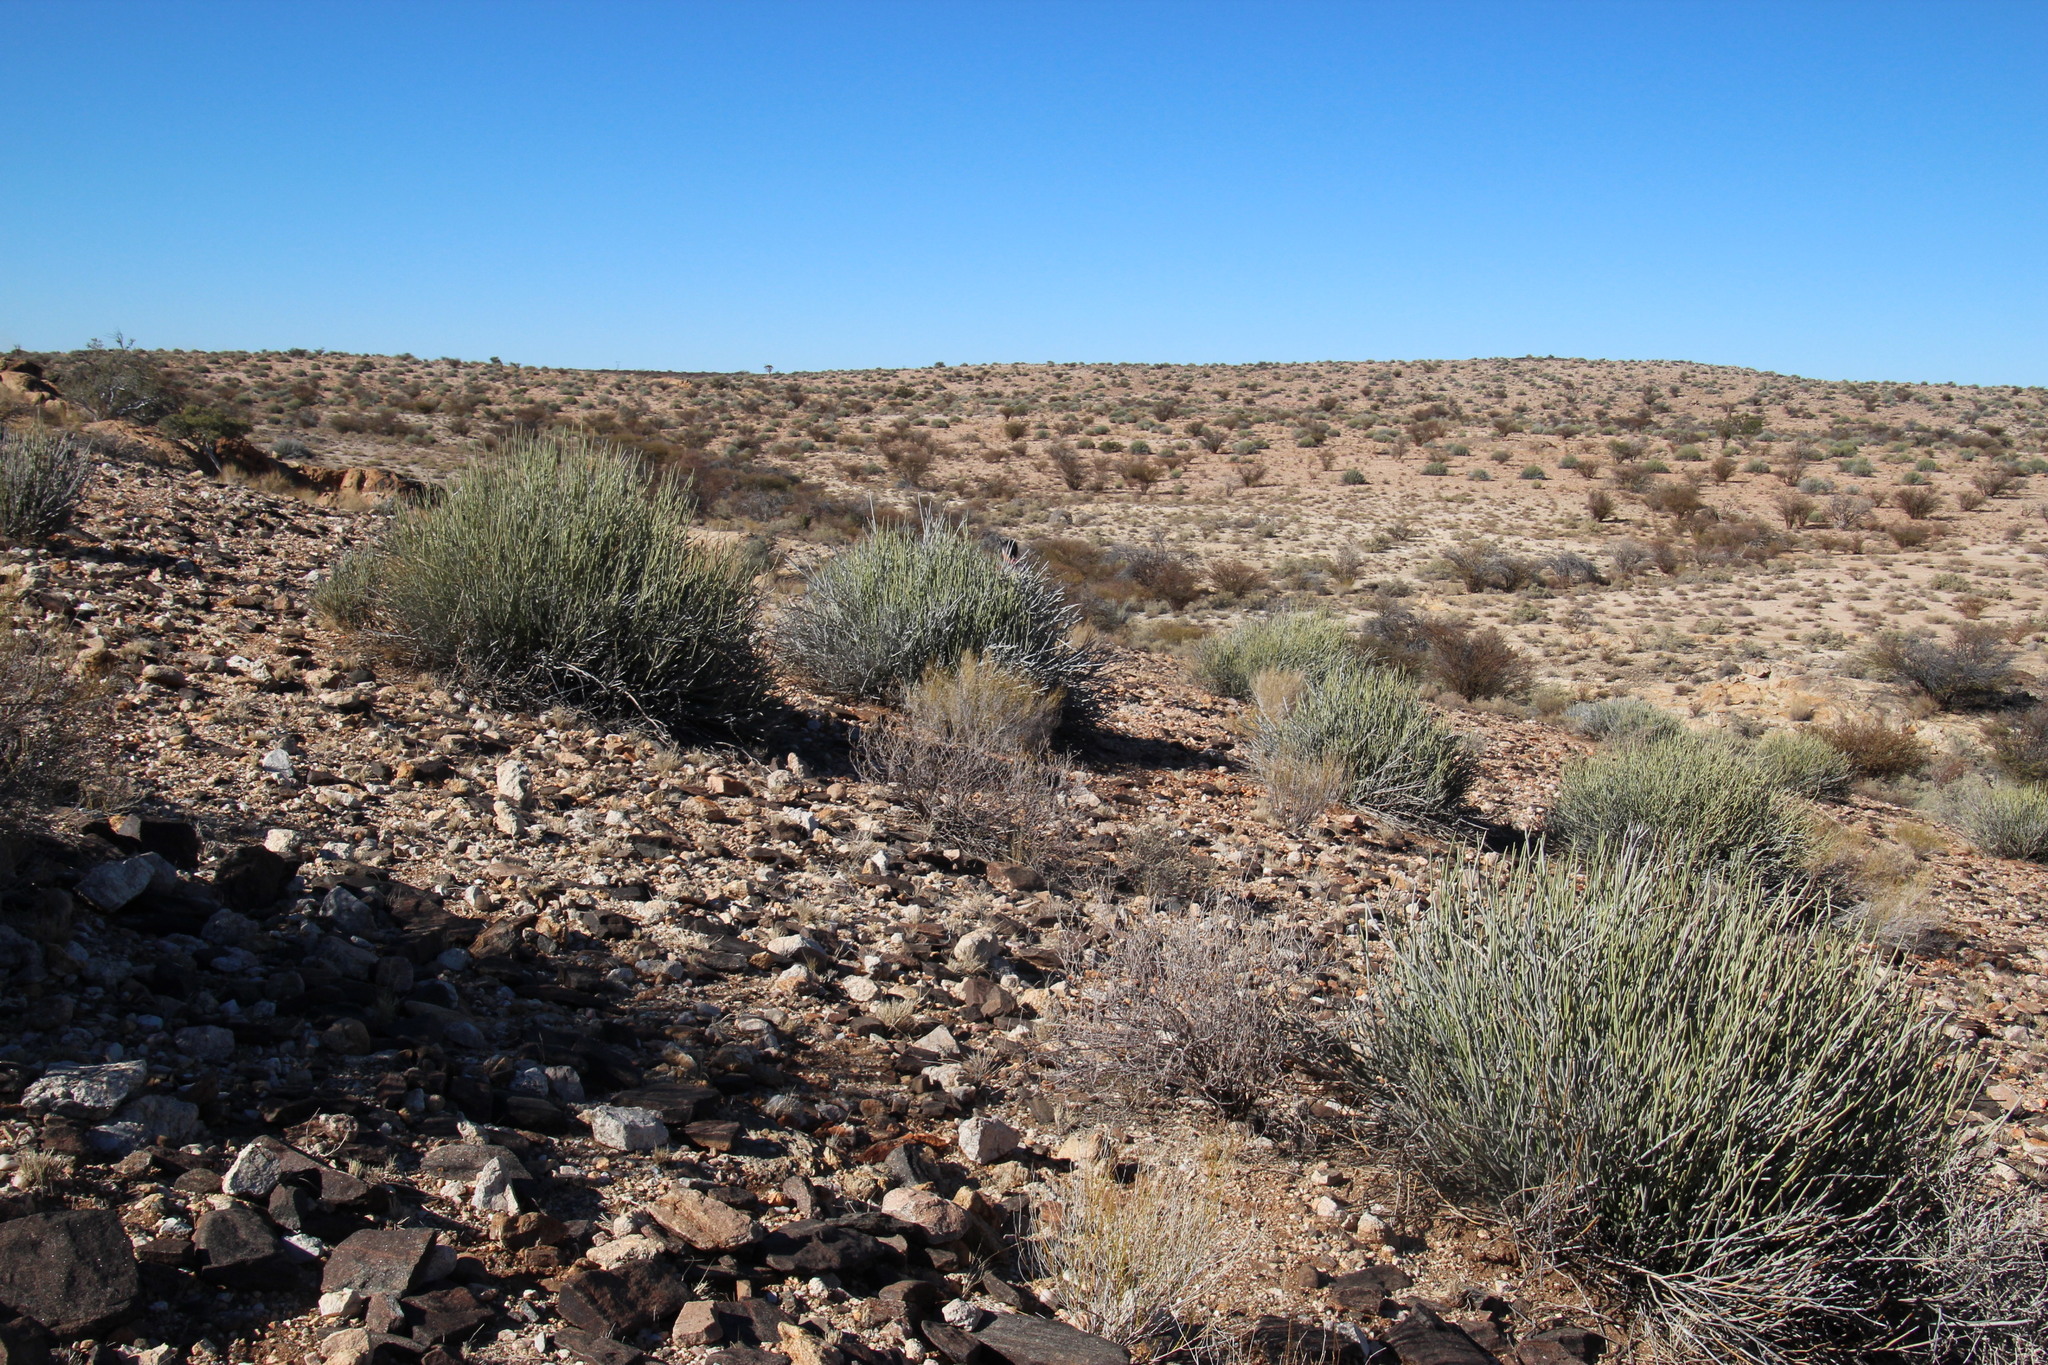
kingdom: Plantae
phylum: Tracheophyta
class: Magnoliopsida
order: Malpighiales
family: Euphorbiaceae
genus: Euphorbia
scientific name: Euphorbia gregaria
